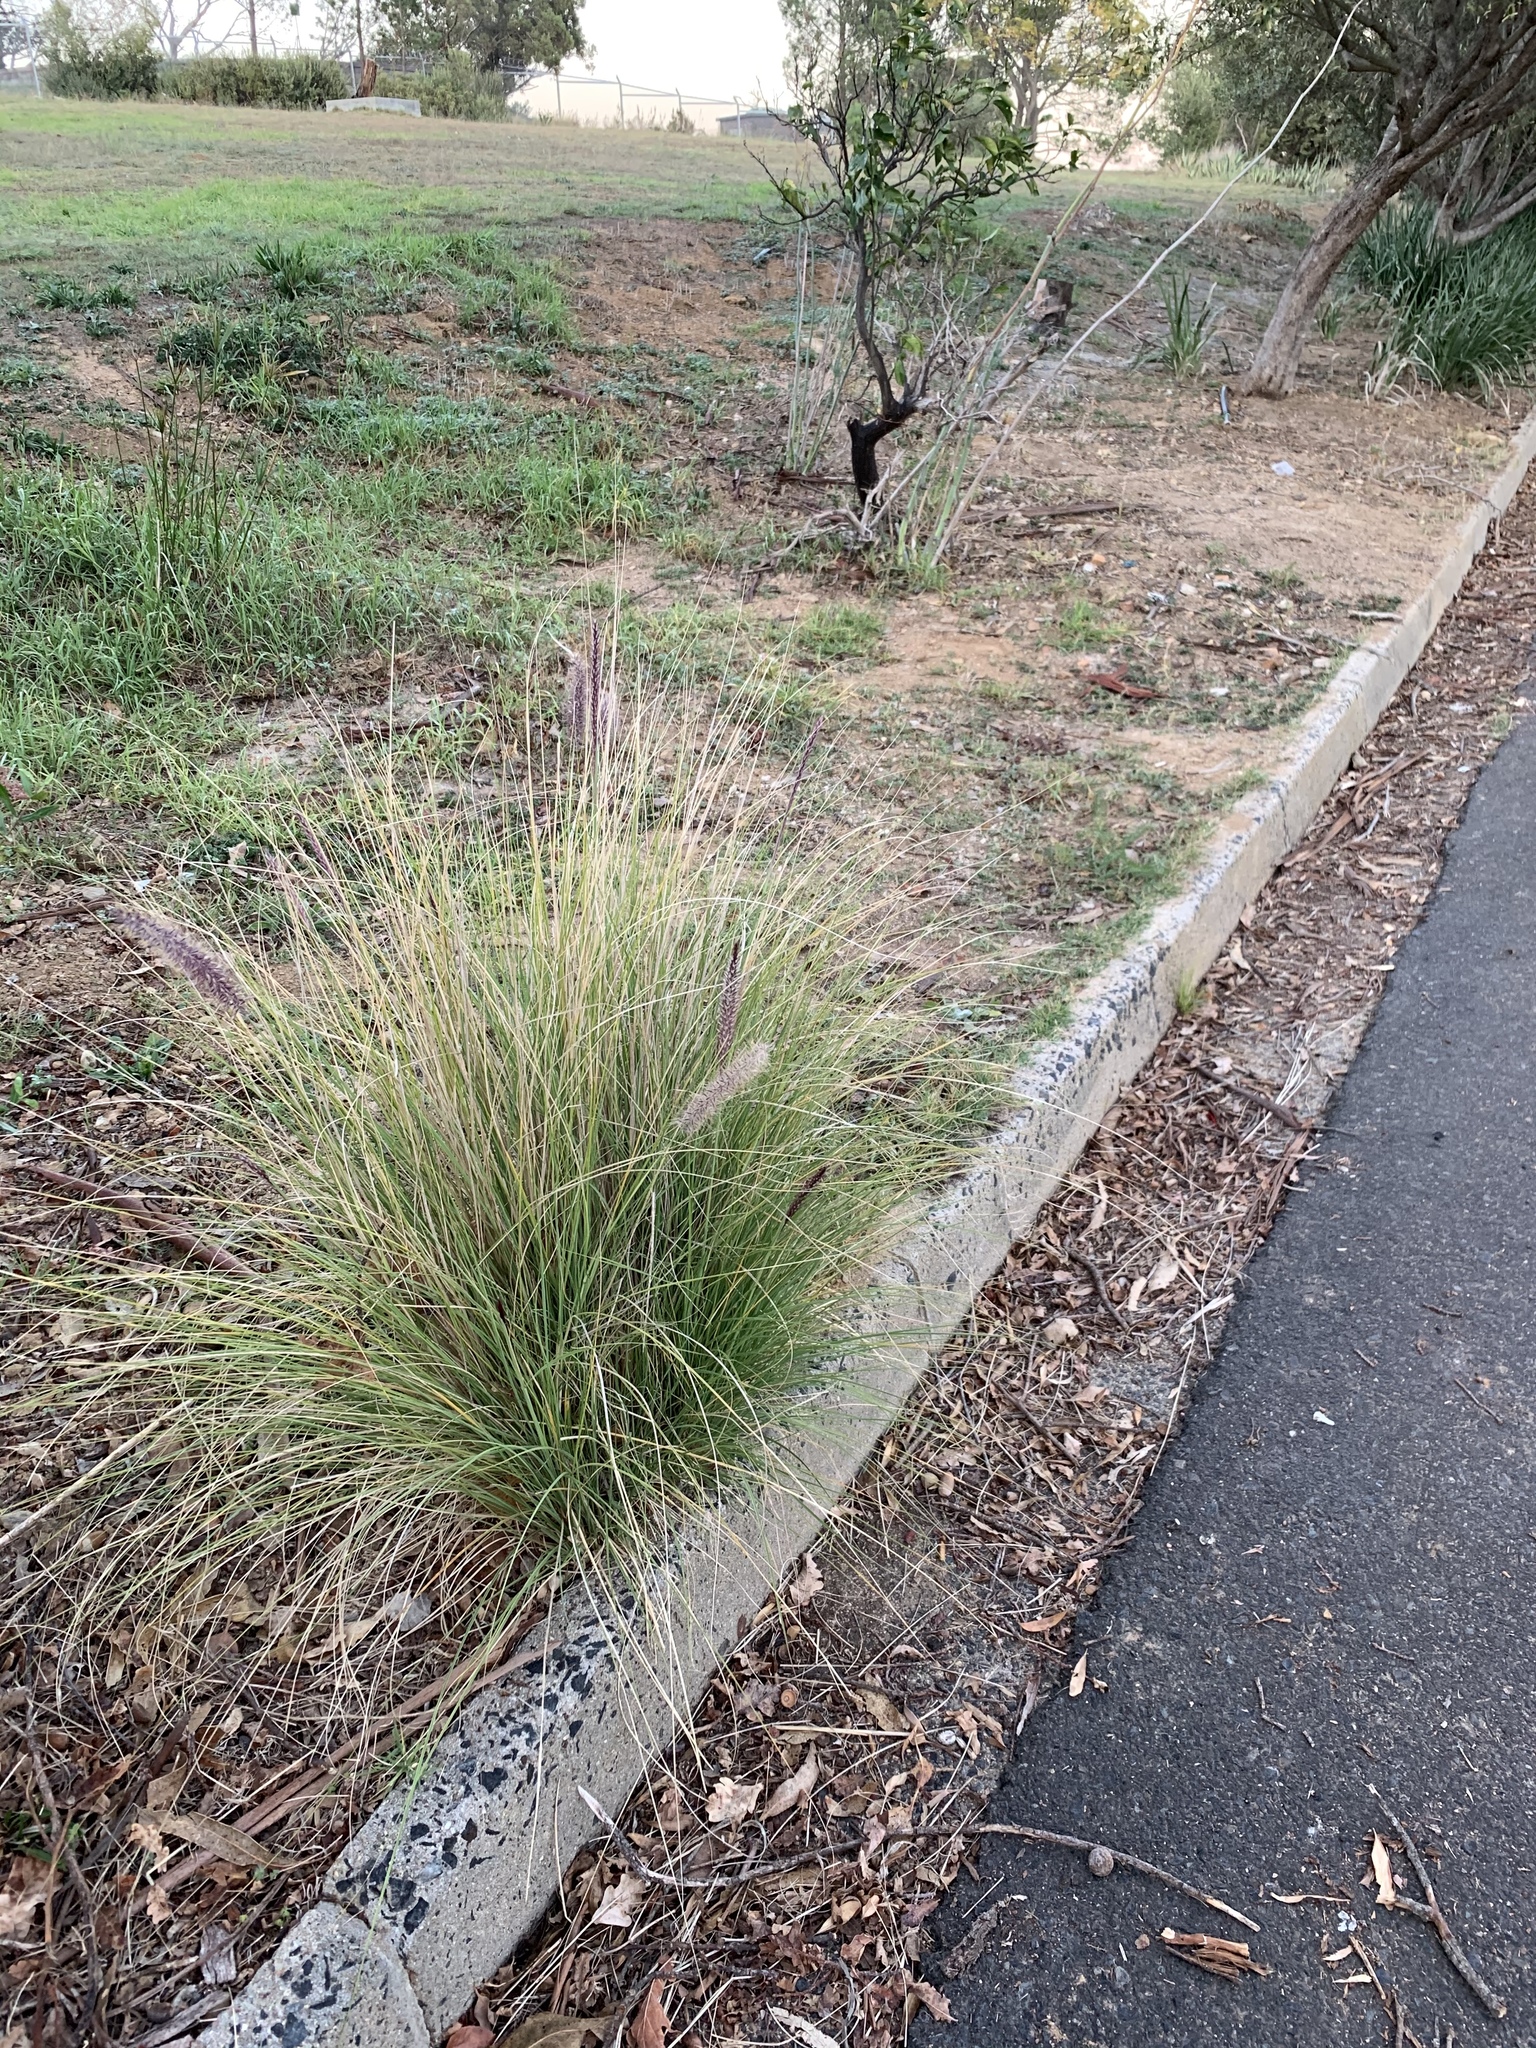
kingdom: Plantae
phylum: Tracheophyta
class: Liliopsida
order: Poales
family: Poaceae
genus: Cenchrus
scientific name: Cenchrus setaceus
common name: Crimson fountaingrass
